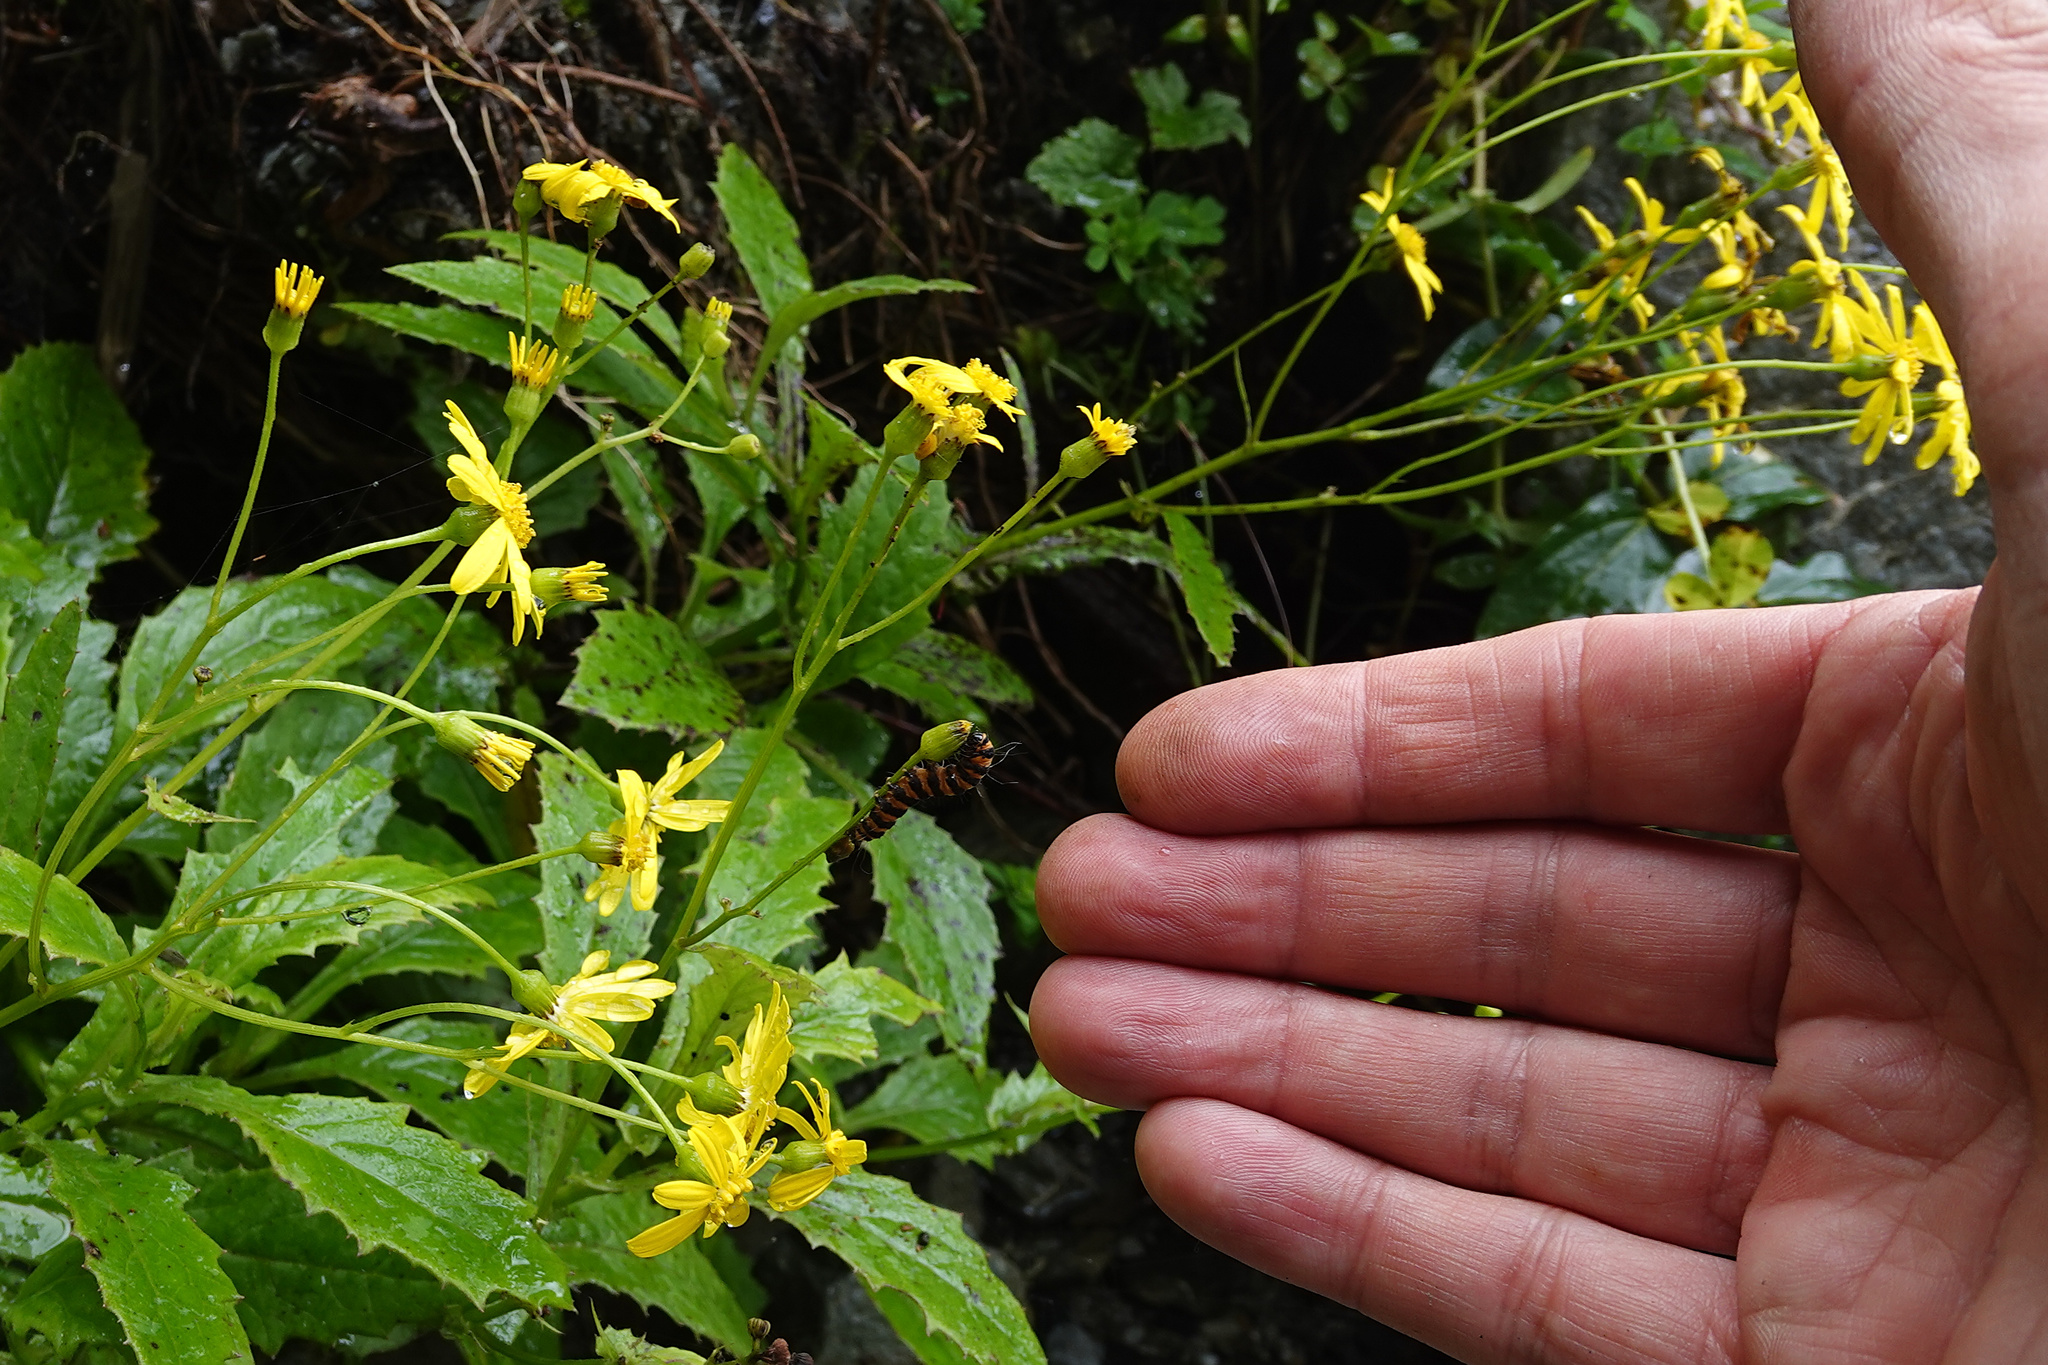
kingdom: Animalia
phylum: Arthropoda
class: Insecta
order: Lepidoptera
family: Erebidae
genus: Tyria
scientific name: Tyria jacobaeae
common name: Cinnabar
